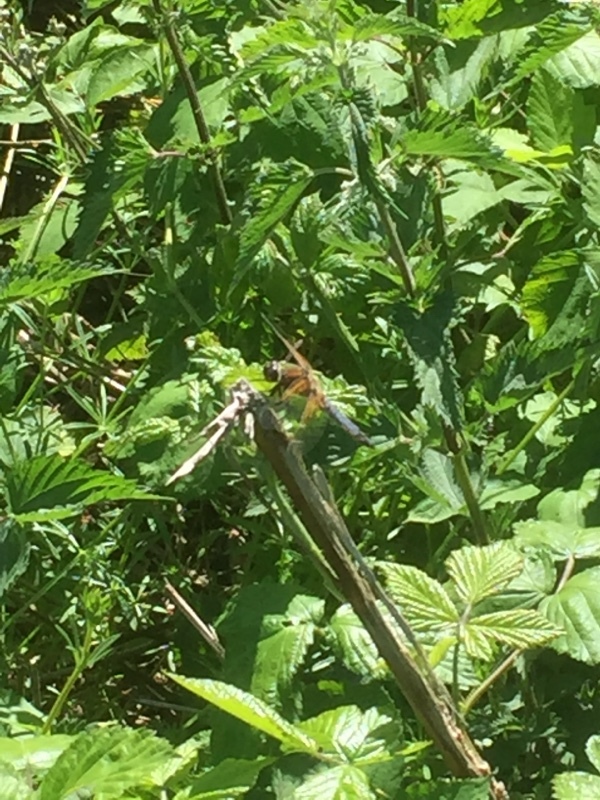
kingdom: Animalia
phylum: Arthropoda
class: Insecta
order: Odonata
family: Libellulidae
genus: Libellula
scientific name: Libellula fulva
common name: Blue chaser
